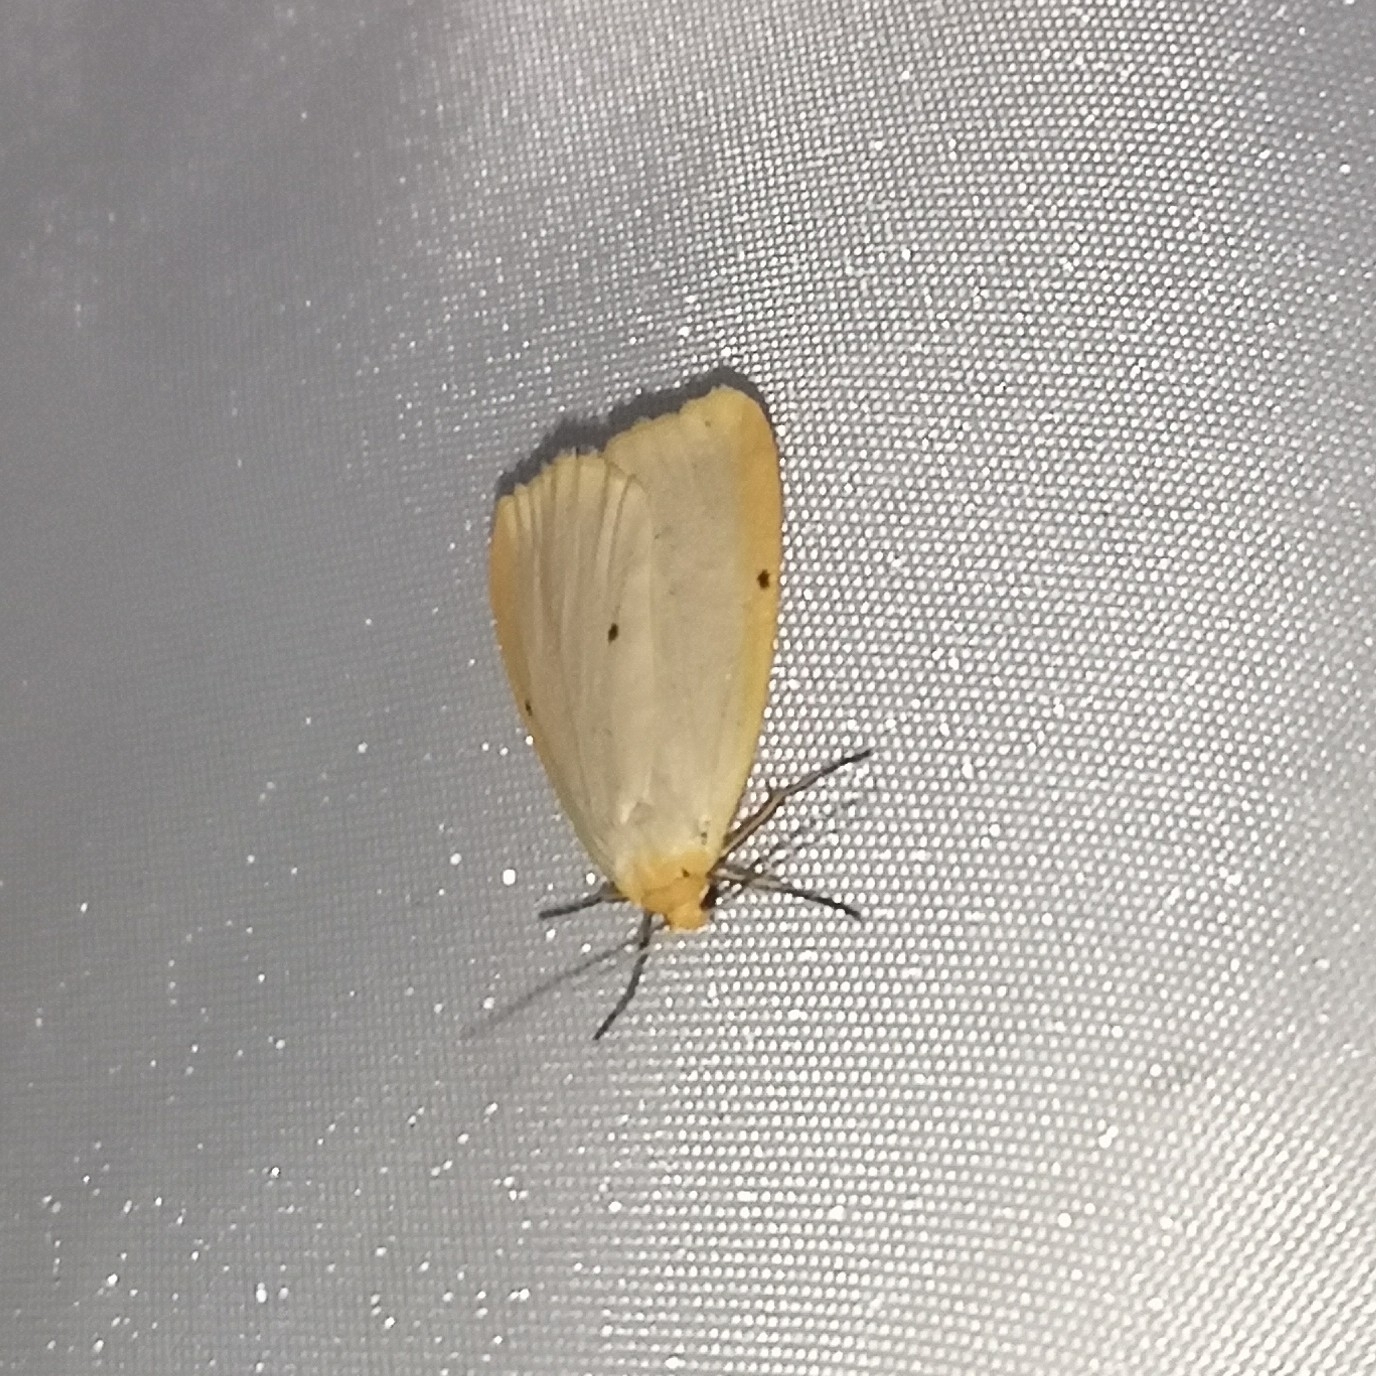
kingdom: Animalia
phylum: Arthropoda
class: Insecta
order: Lepidoptera
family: Erebidae
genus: Cybosia
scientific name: Cybosia mesomella
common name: Four-dotted footman
